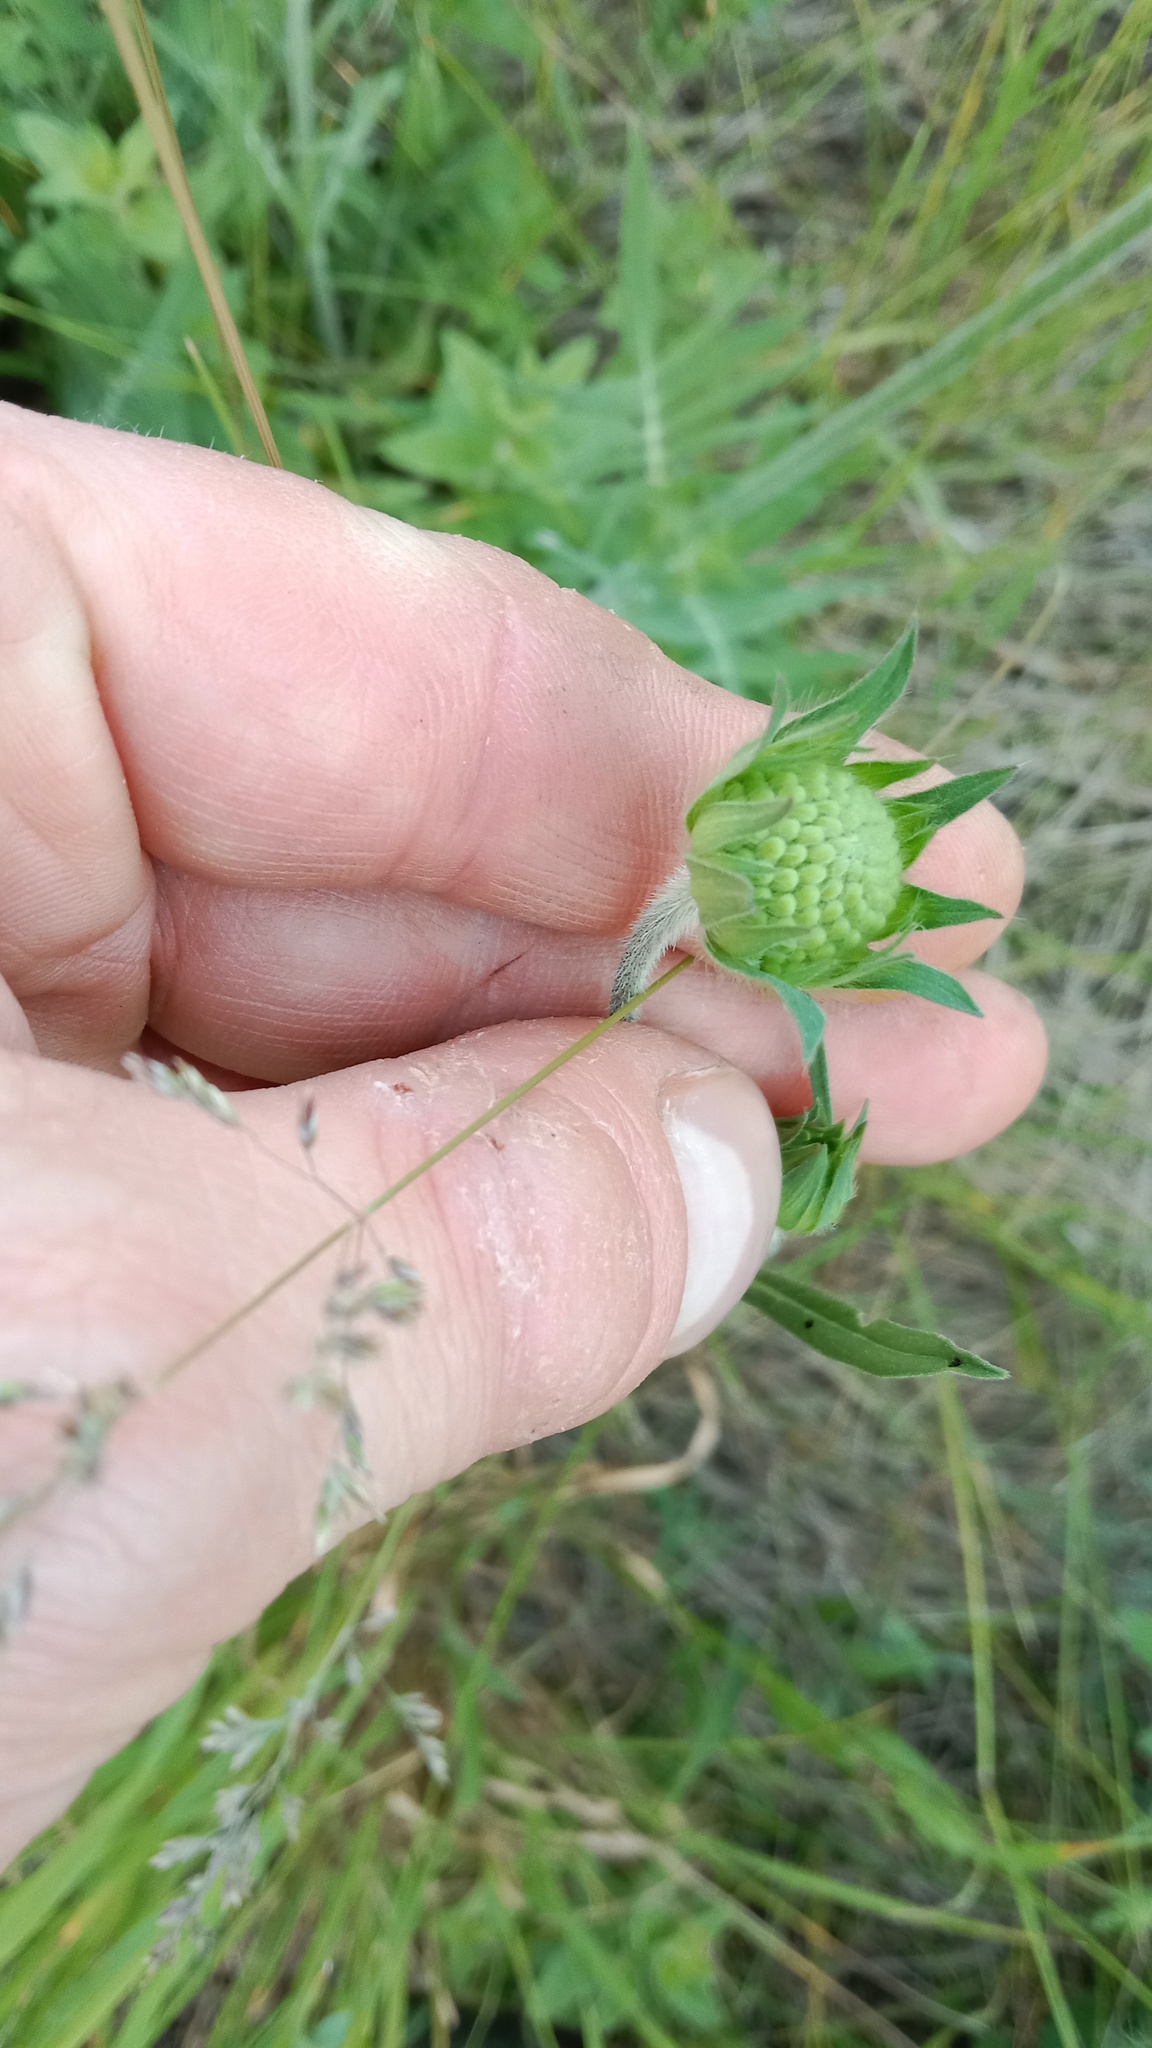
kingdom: Plantae
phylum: Tracheophyta
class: Liliopsida
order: Poales
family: Poaceae
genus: Dactylis
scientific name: Dactylis glomerata
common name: Orchardgrass
